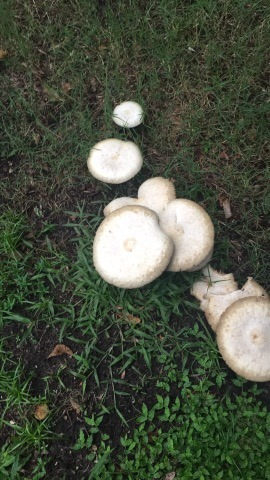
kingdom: Fungi
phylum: Basidiomycota
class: Agaricomycetes
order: Agaricales
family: Agaricaceae
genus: Chlorophyllum
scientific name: Chlorophyllum molybdites
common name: False parasol
